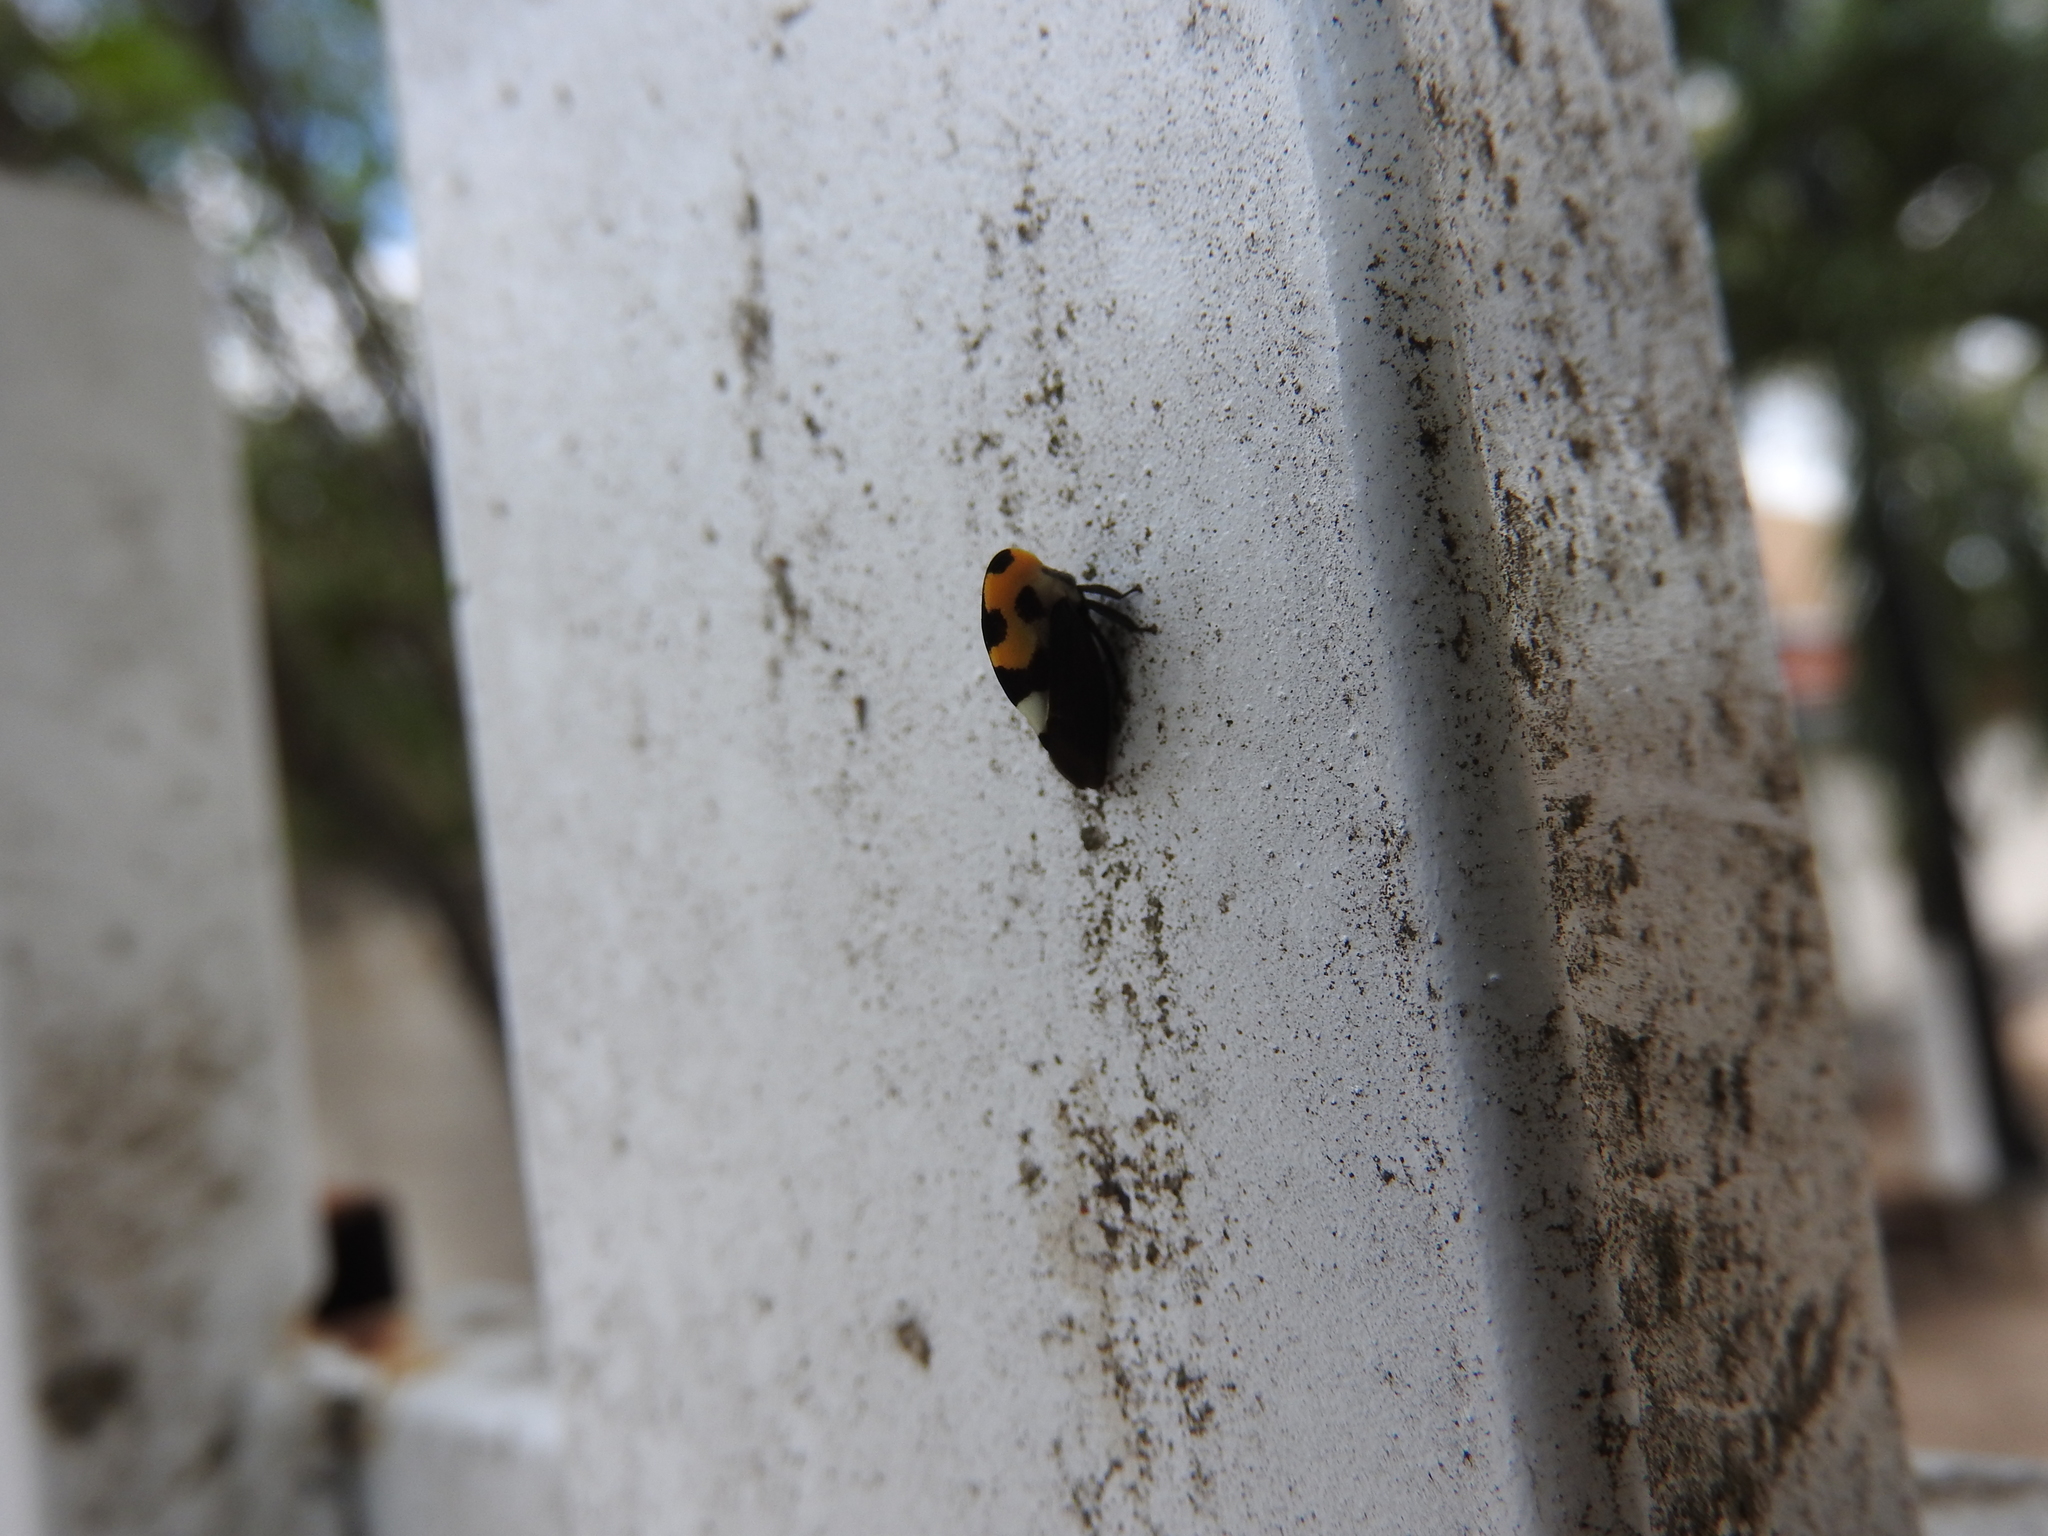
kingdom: Animalia
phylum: Arthropoda
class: Insecta
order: Hemiptera
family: Membracidae
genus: Membracis
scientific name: Membracis mexicana
